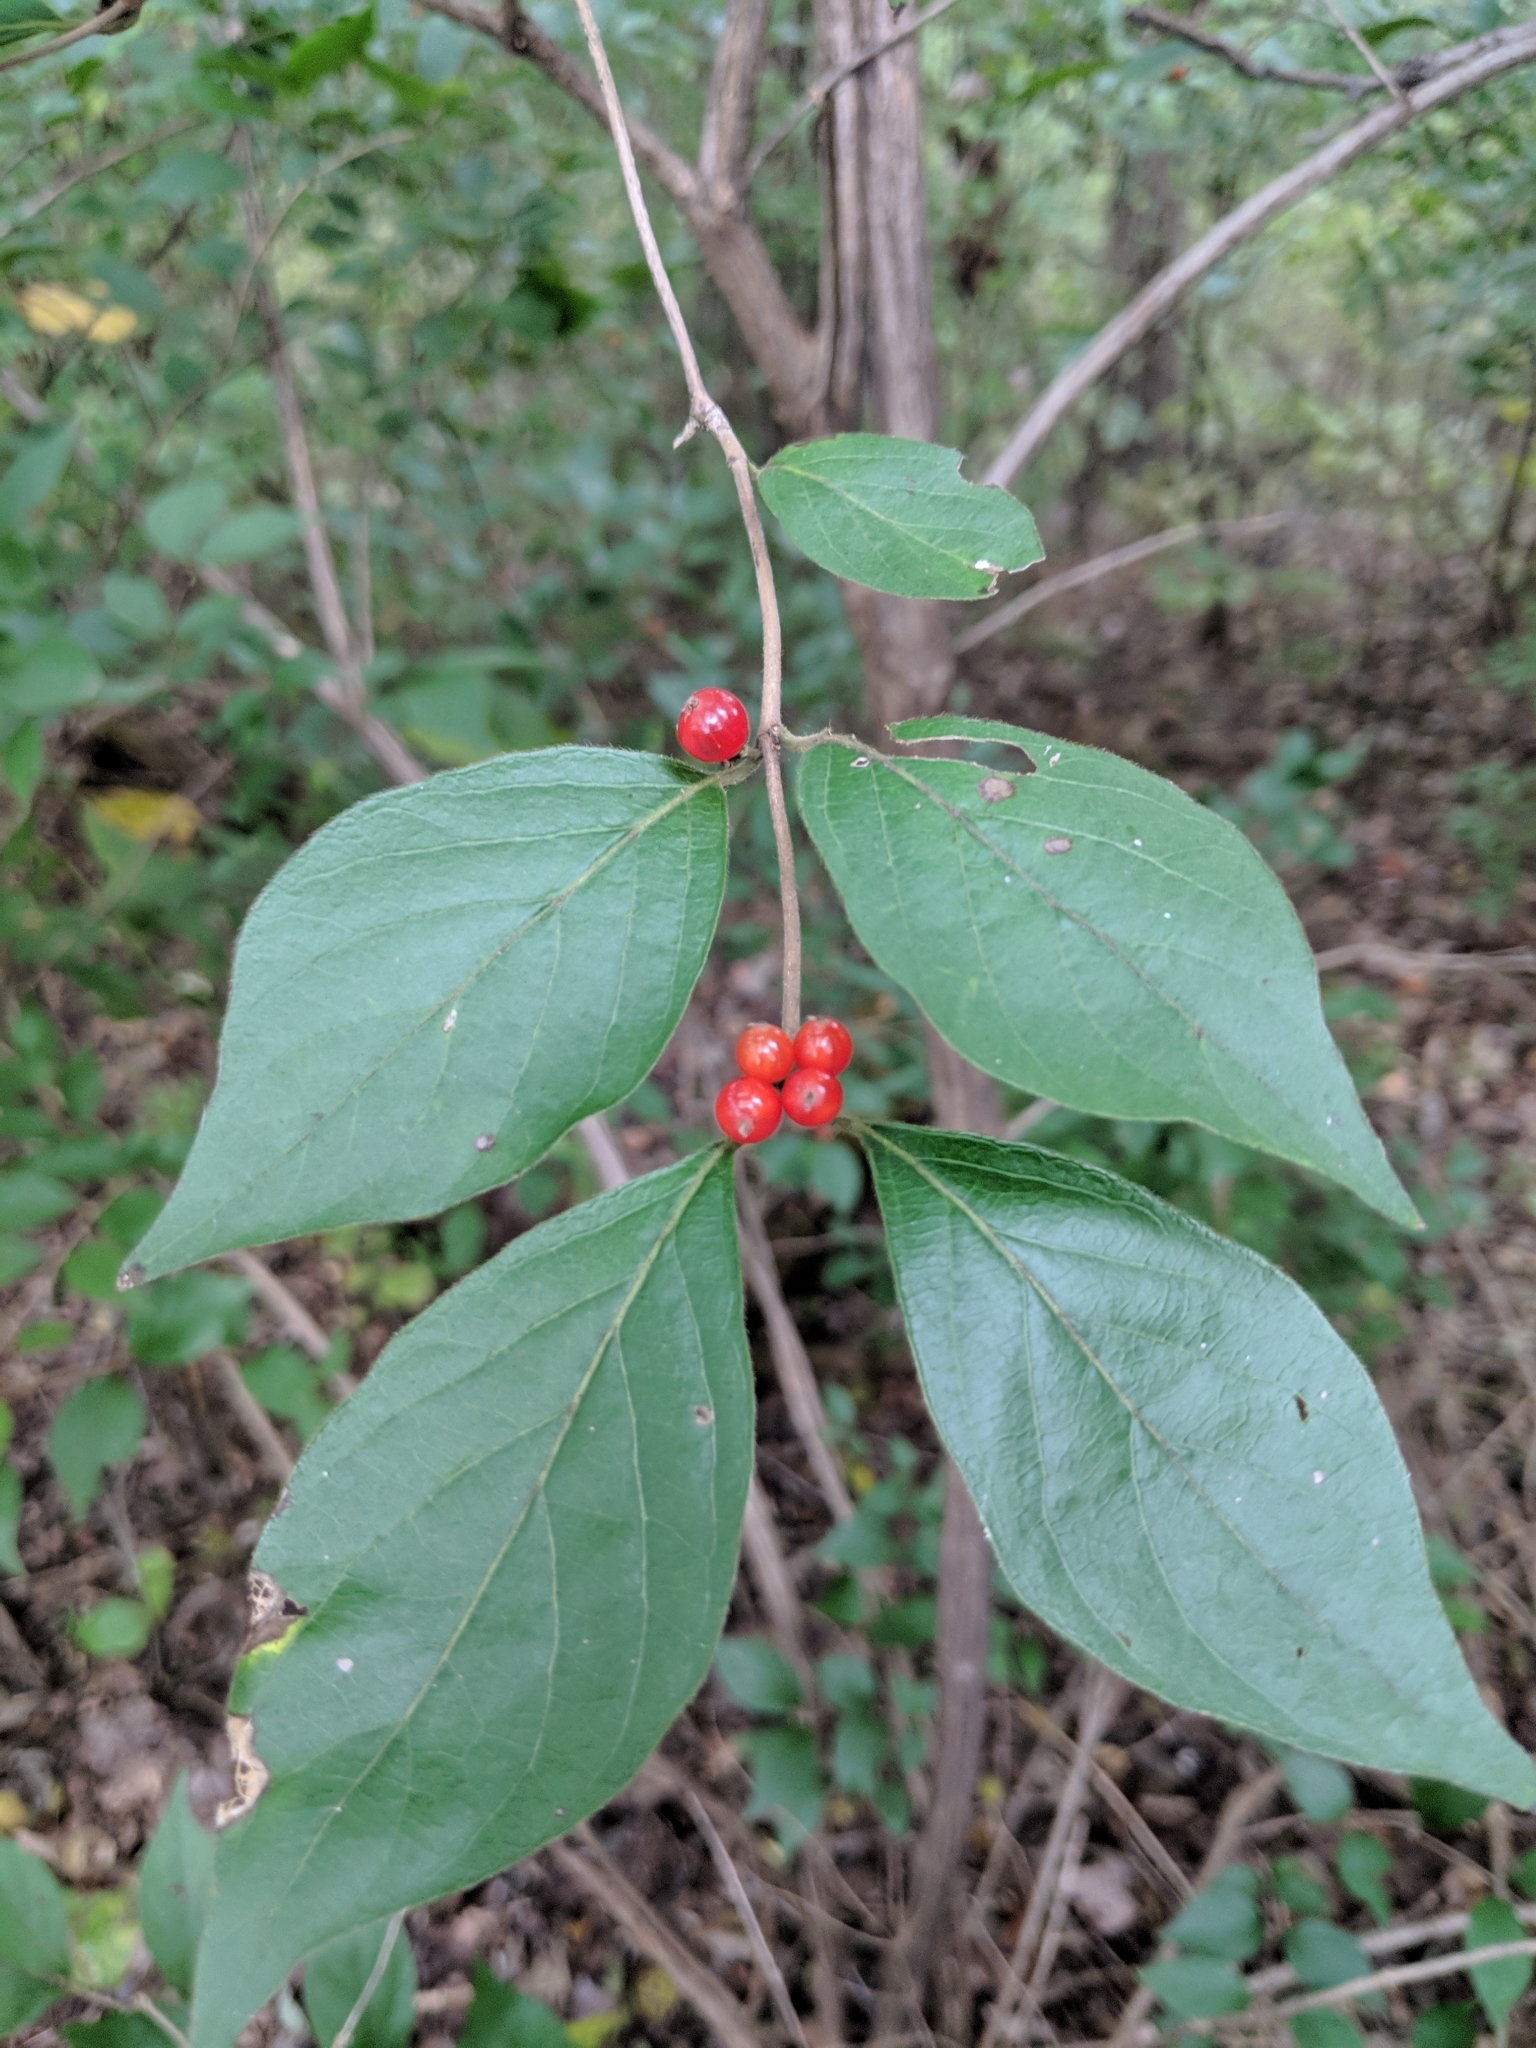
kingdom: Plantae
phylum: Tracheophyta
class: Magnoliopsida
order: Dipsacales
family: Caprifoliaceae
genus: Lonicera
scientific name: Lonicera maackii
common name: Amur honeysuckle
